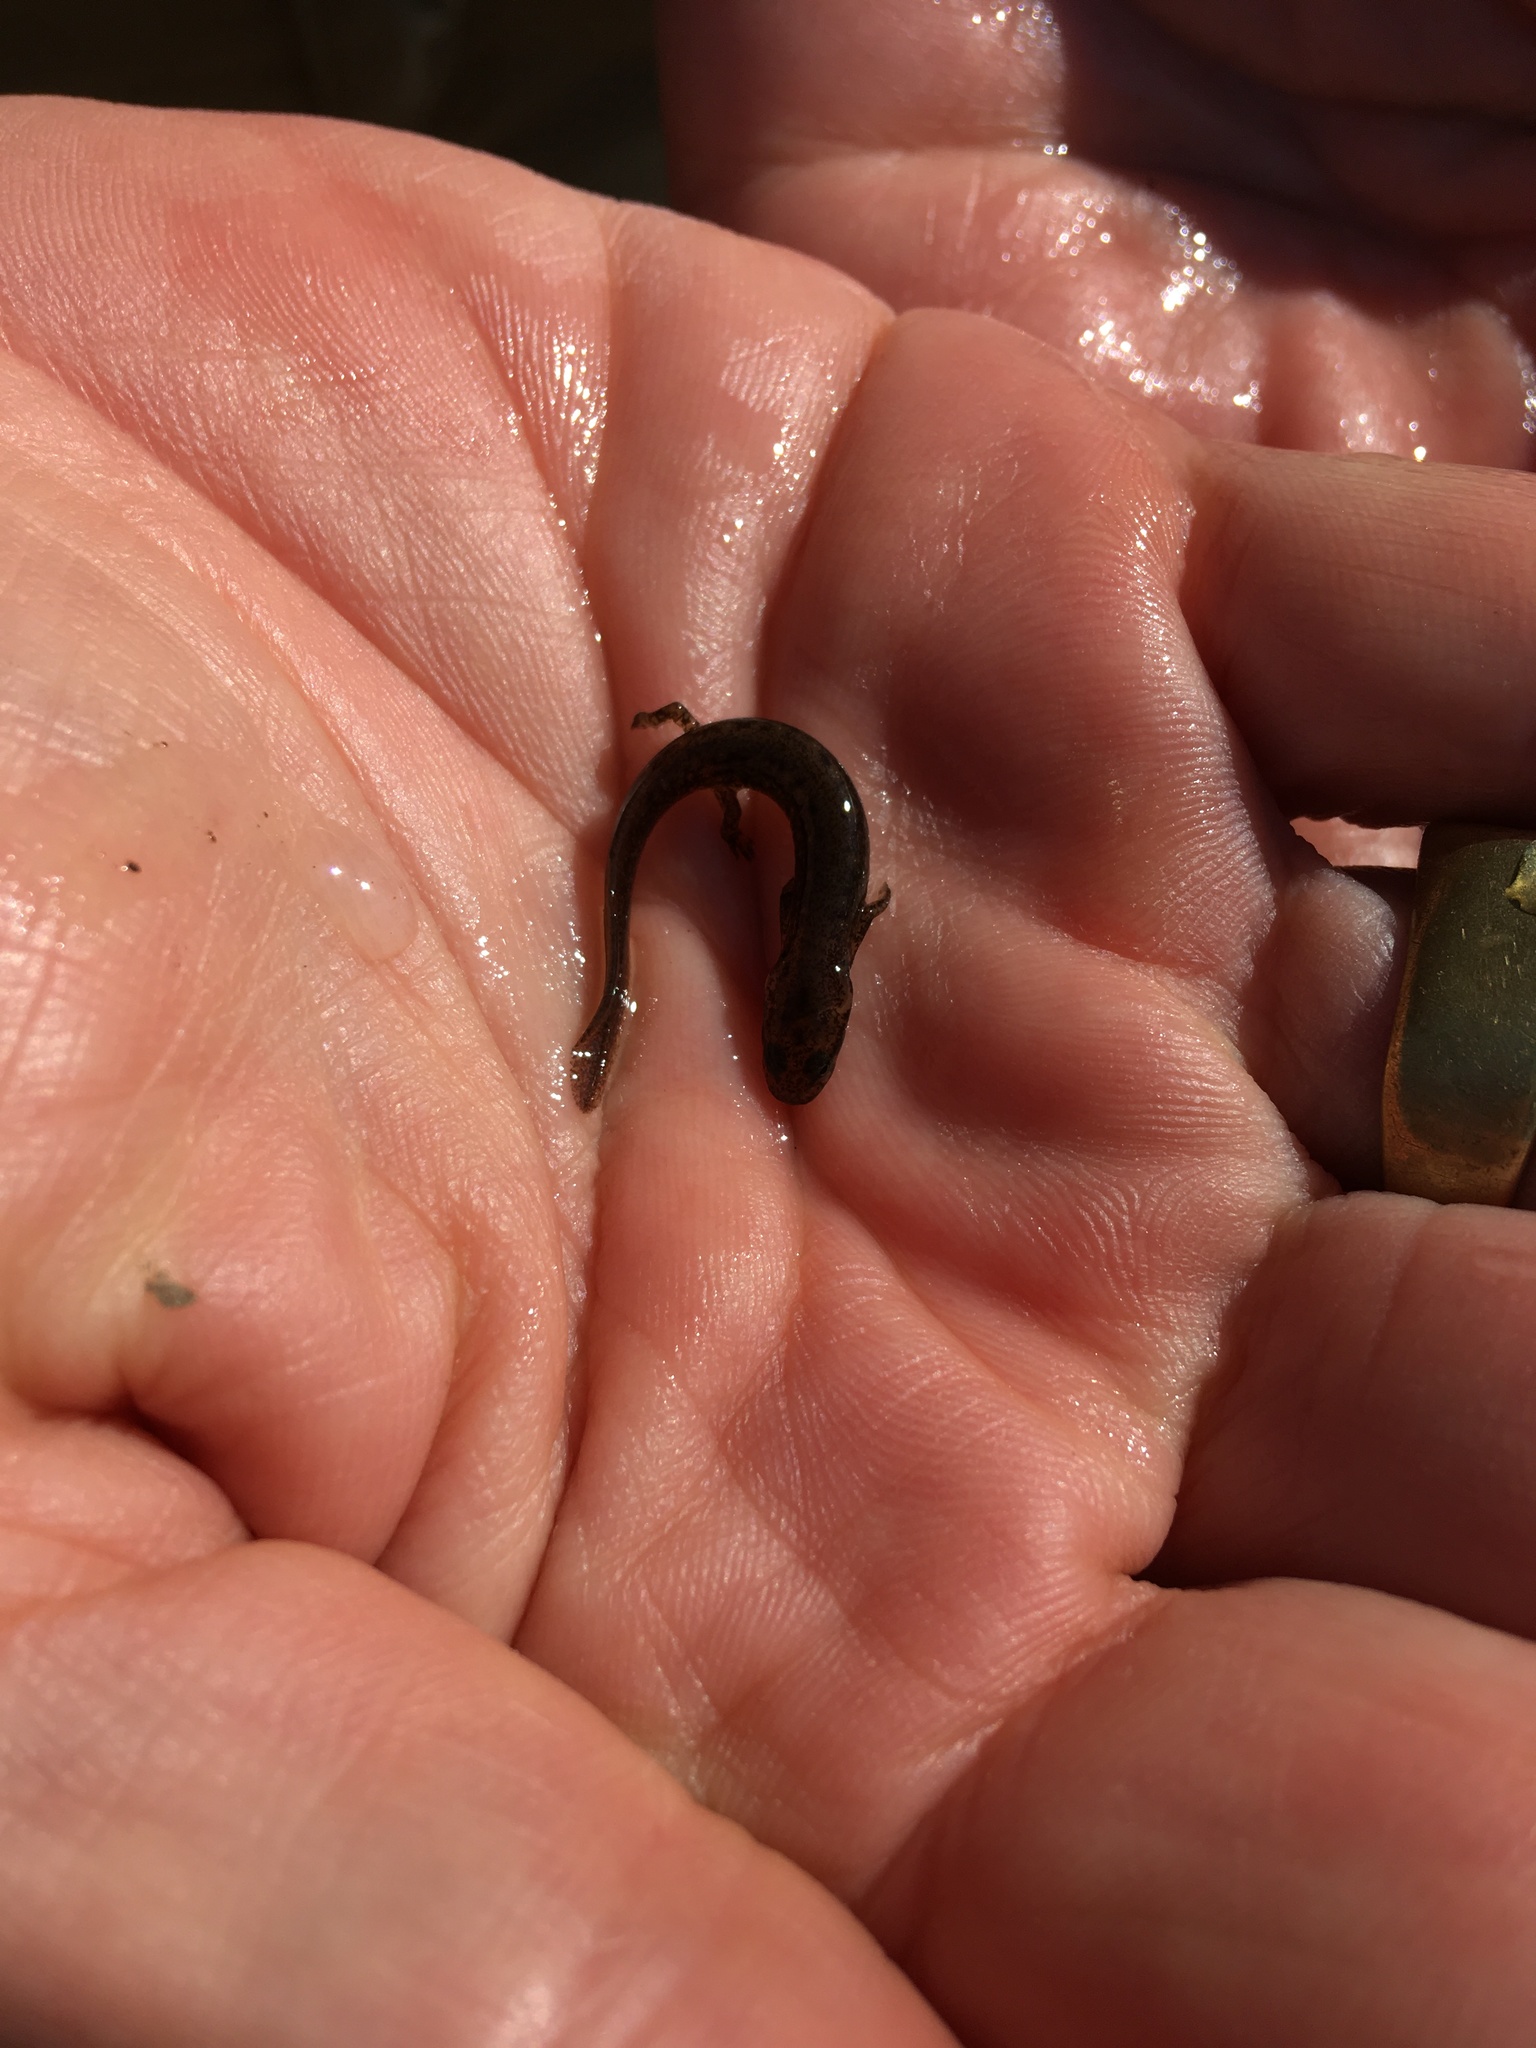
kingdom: Animalia
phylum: Chordata
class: Amphibia
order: Caudata
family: Plethodontidae
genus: Eurycea
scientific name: Eurycea bislineata
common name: Northern two-lined salamander
